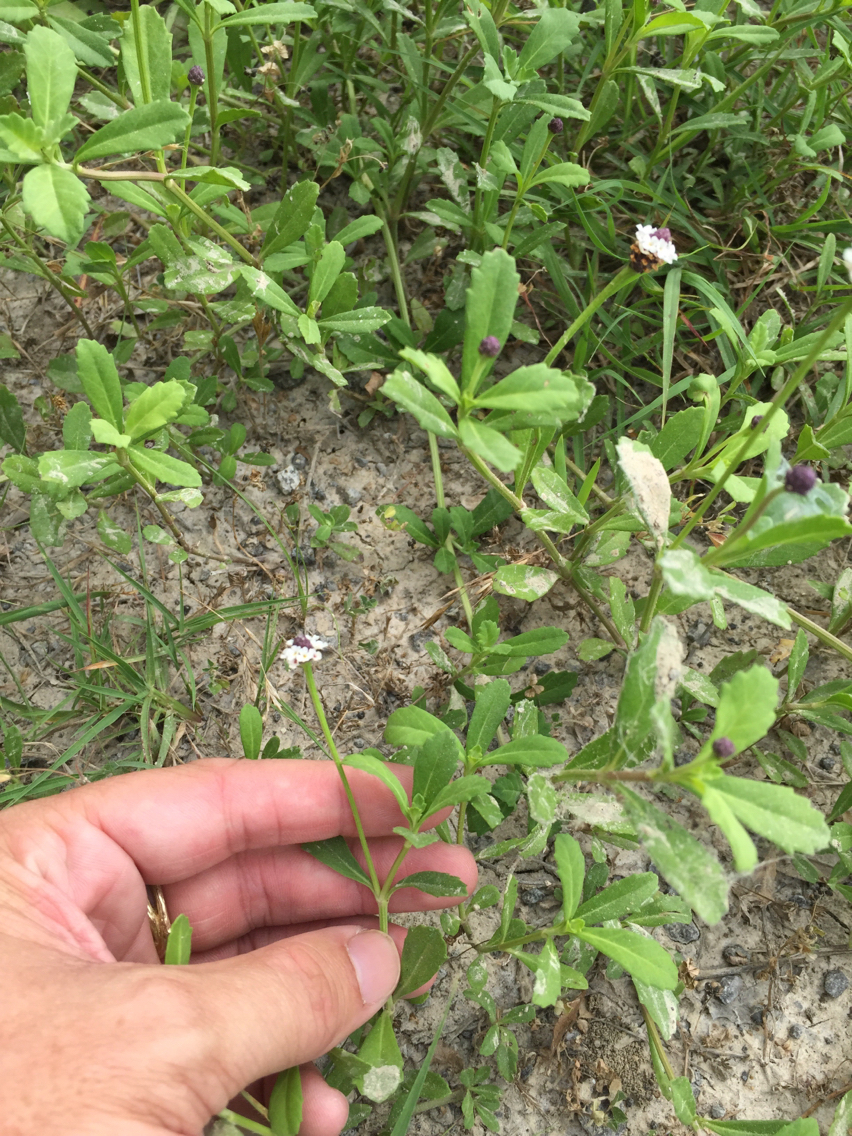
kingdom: Plantae
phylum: Tracheophyta
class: Magnoliopsida
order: Lamiales
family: Verbenaceae
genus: Phyla
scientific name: Phyla nodiflora
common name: Frogfruit
